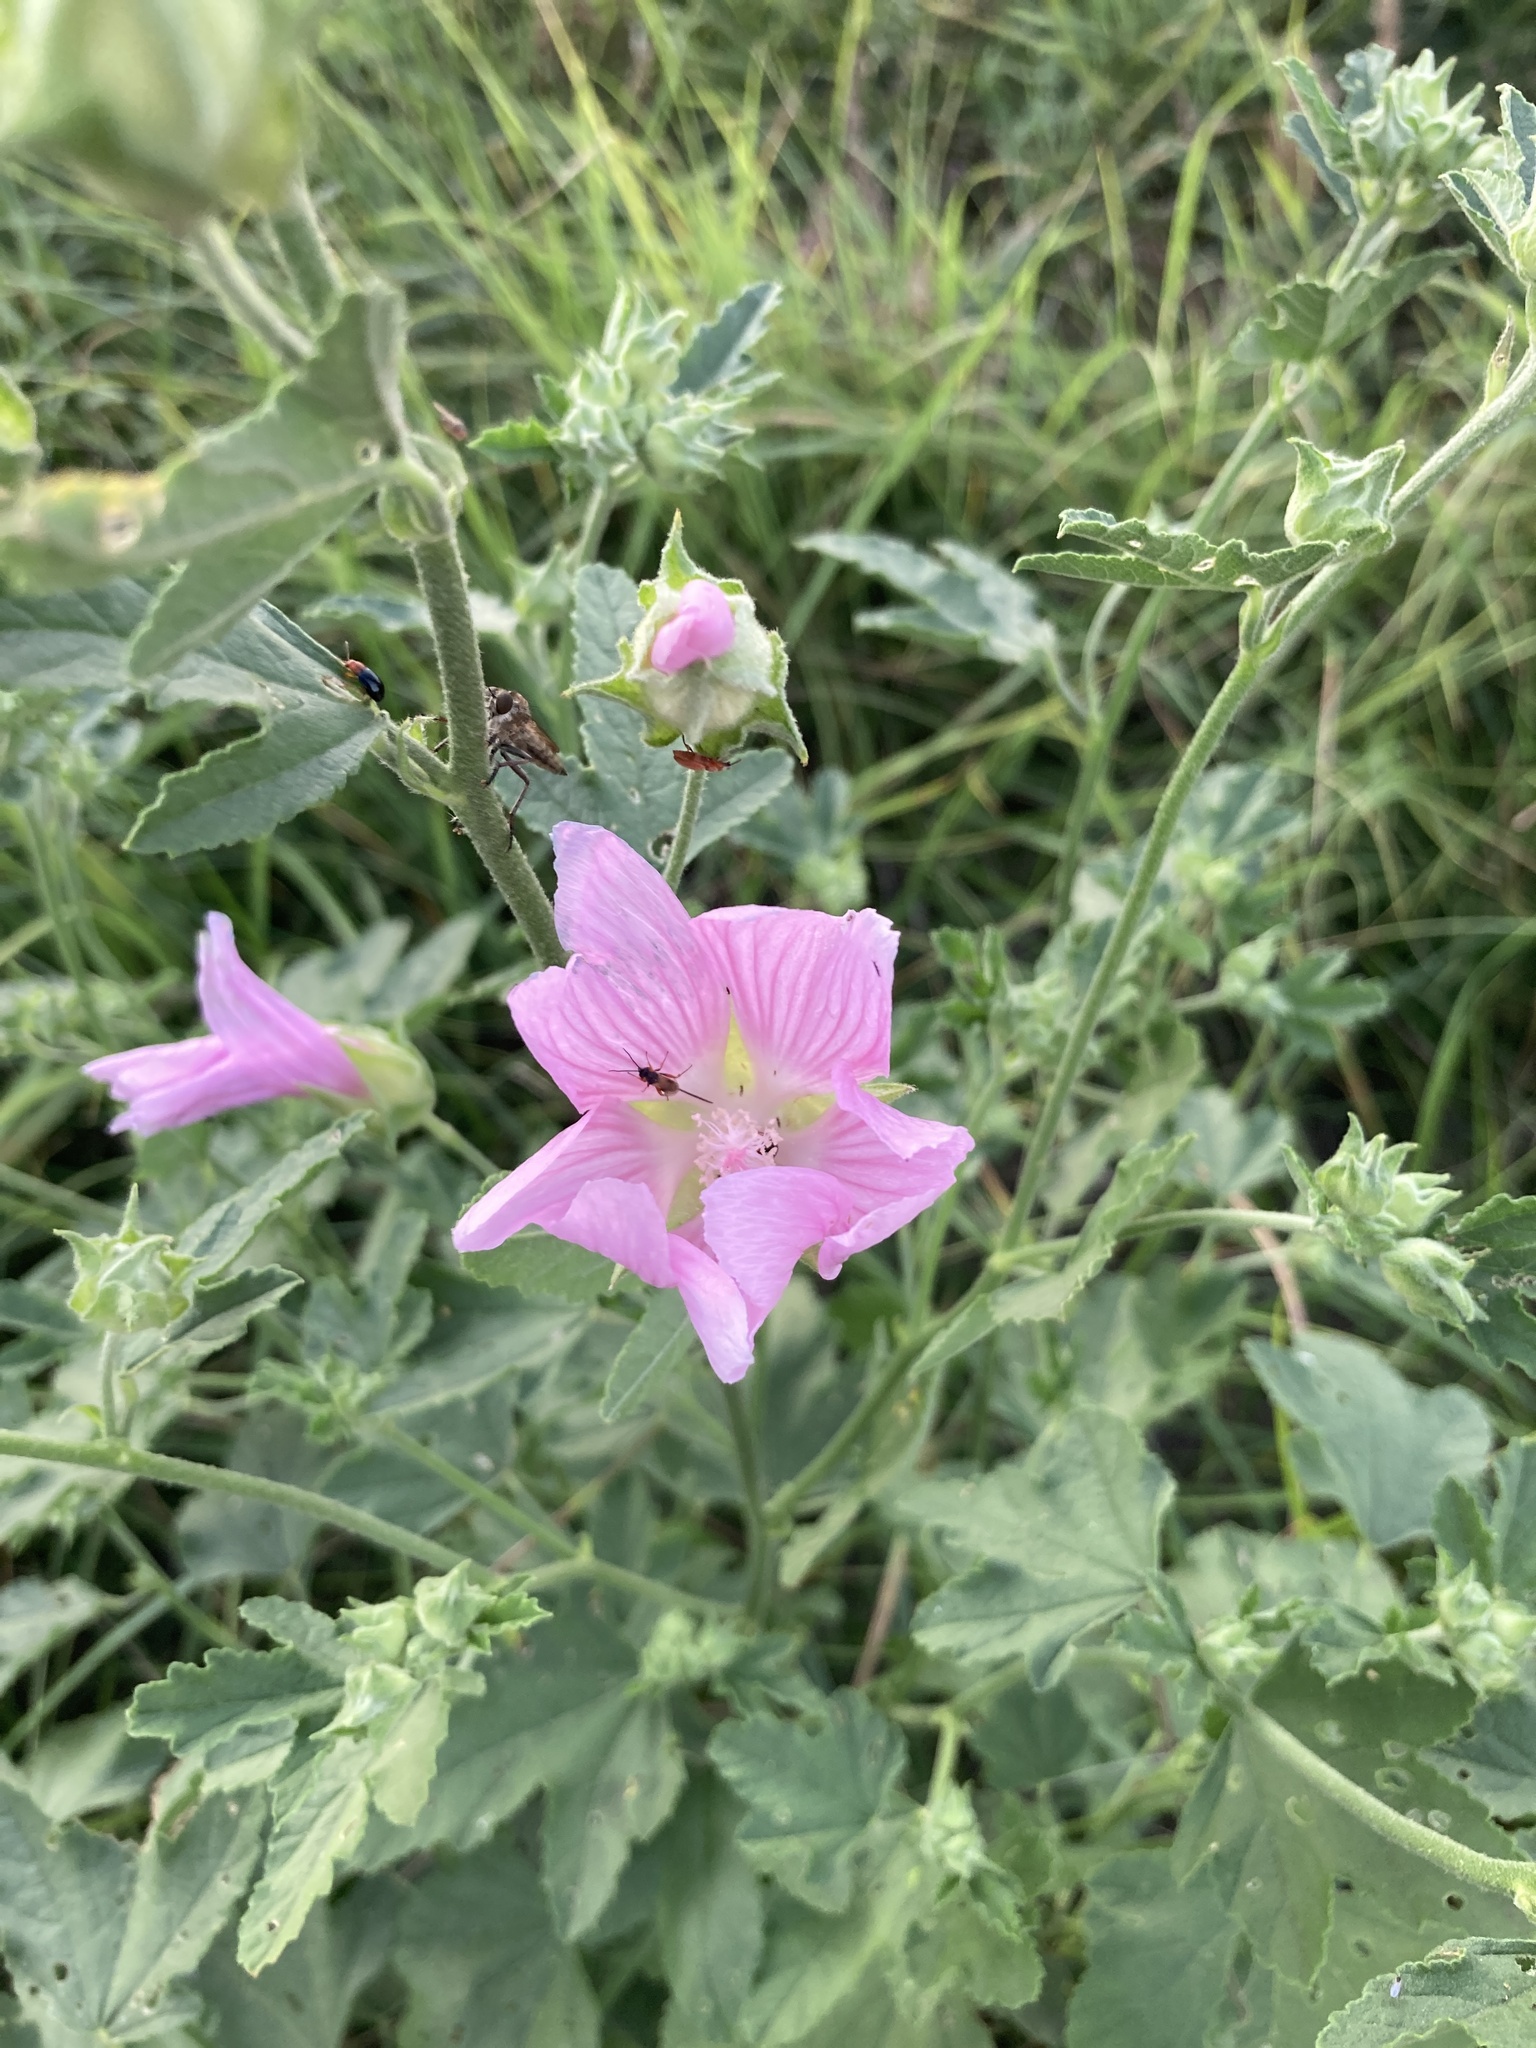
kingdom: Plantae
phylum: Tracheophyta
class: Magnoliopsida
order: Malvales
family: Malvaceae
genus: Malva
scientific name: Malva thuringiaca
